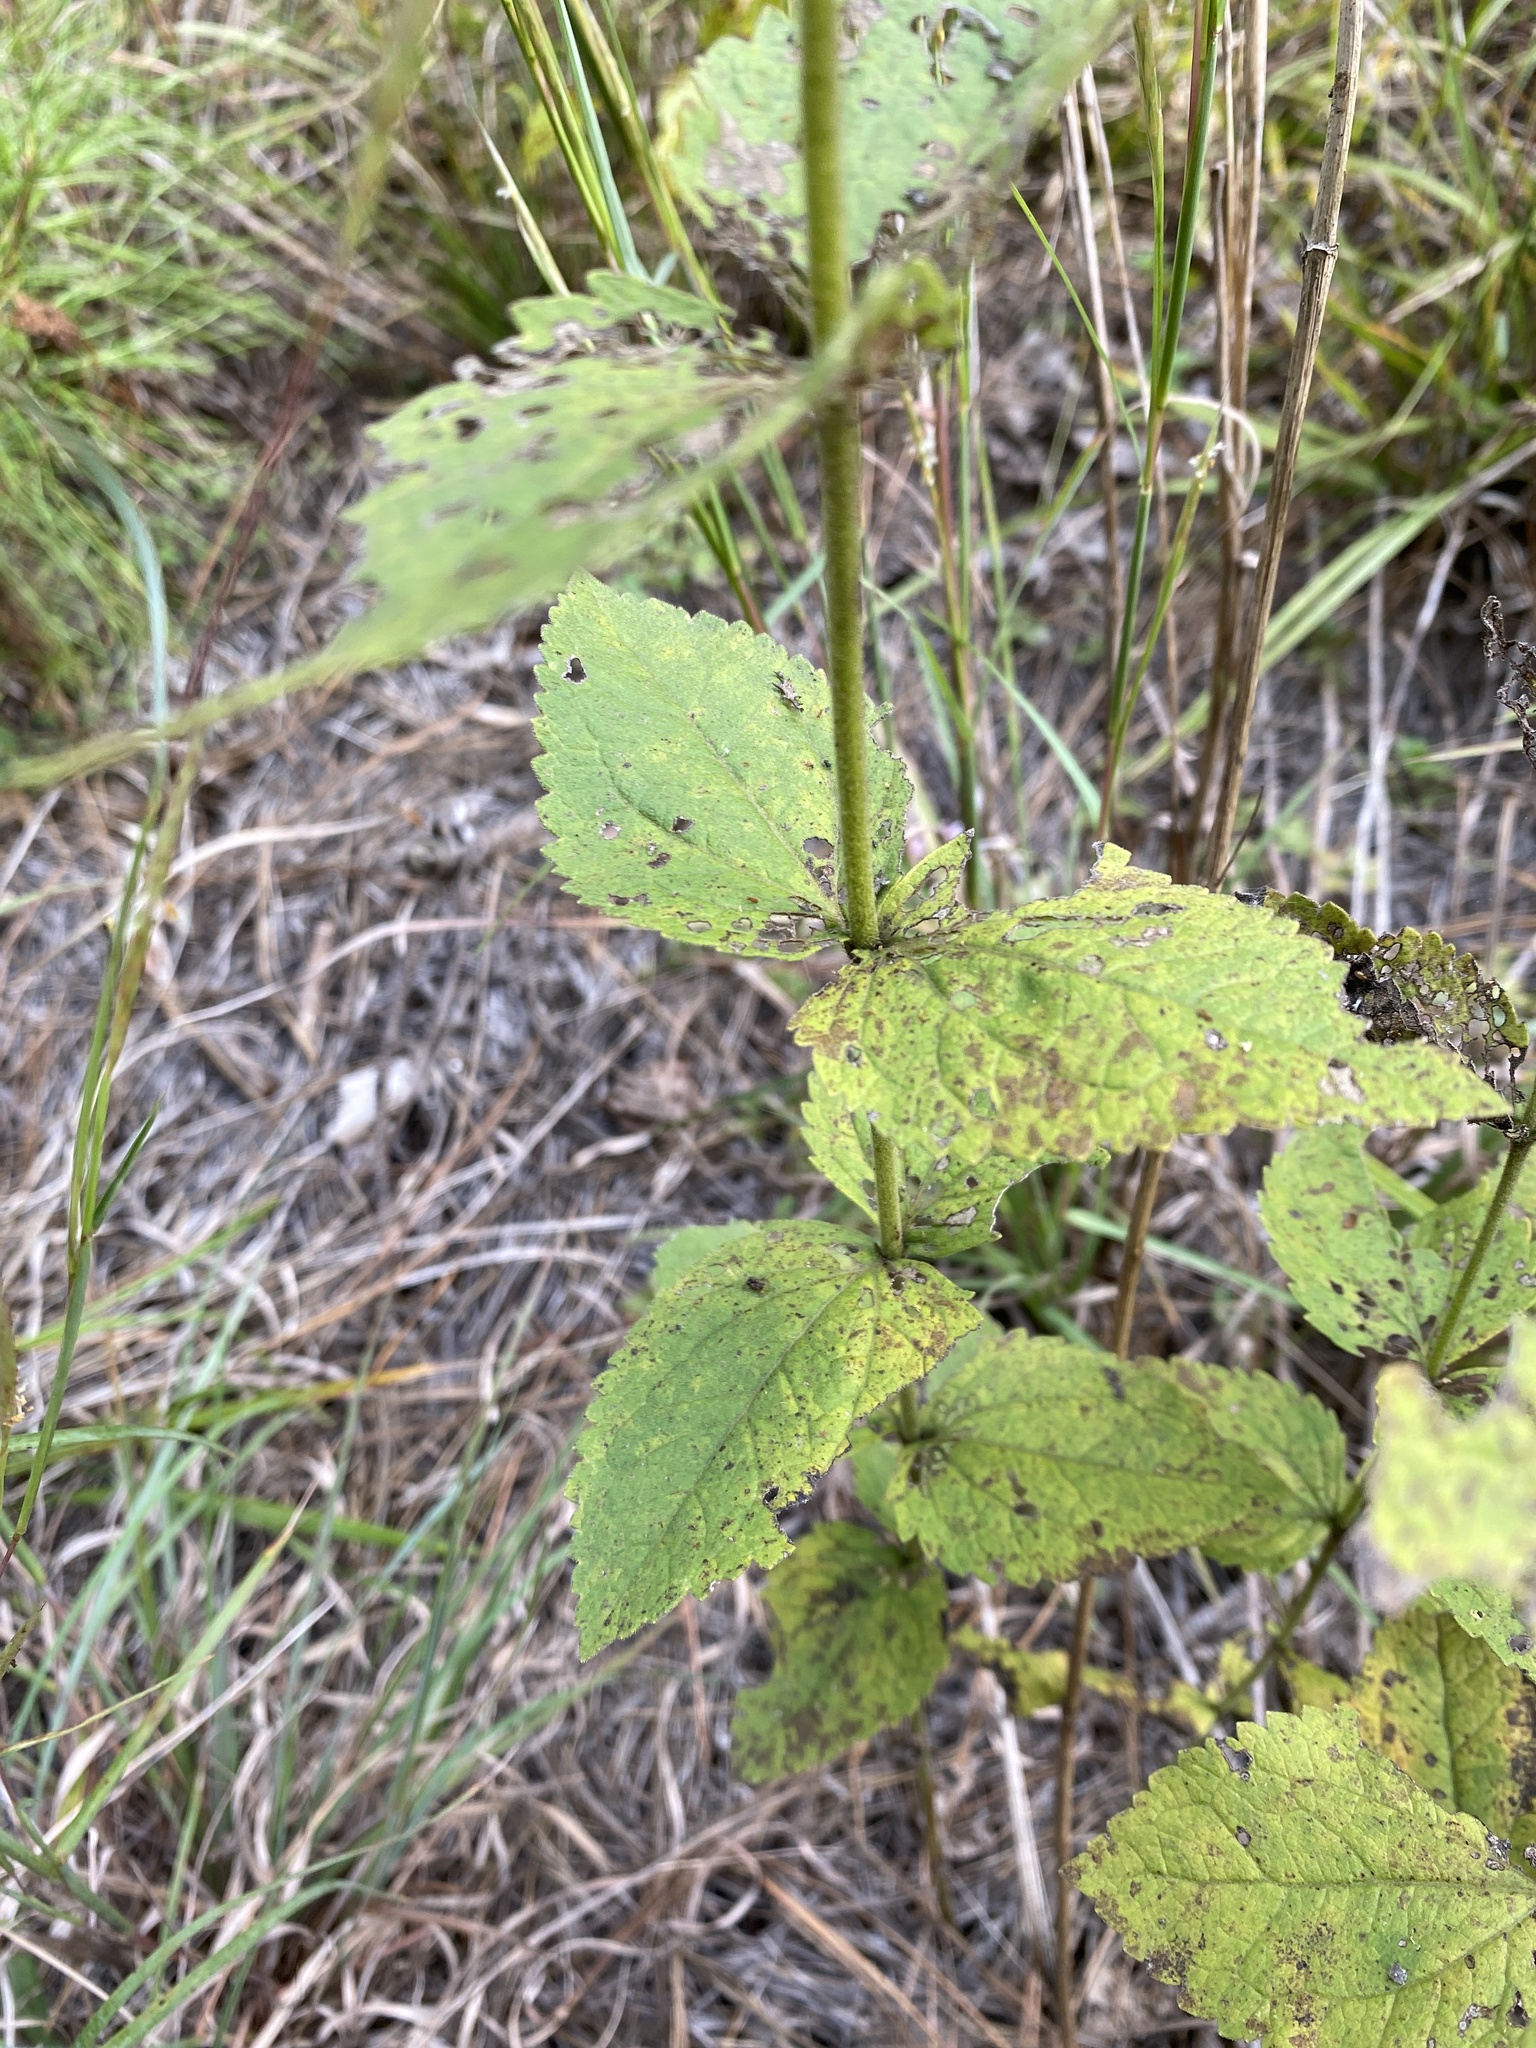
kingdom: Plantae
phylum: Tracheophyta
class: Magnoliopsida
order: Asterales
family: Asteraceae
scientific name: Asteraceae
